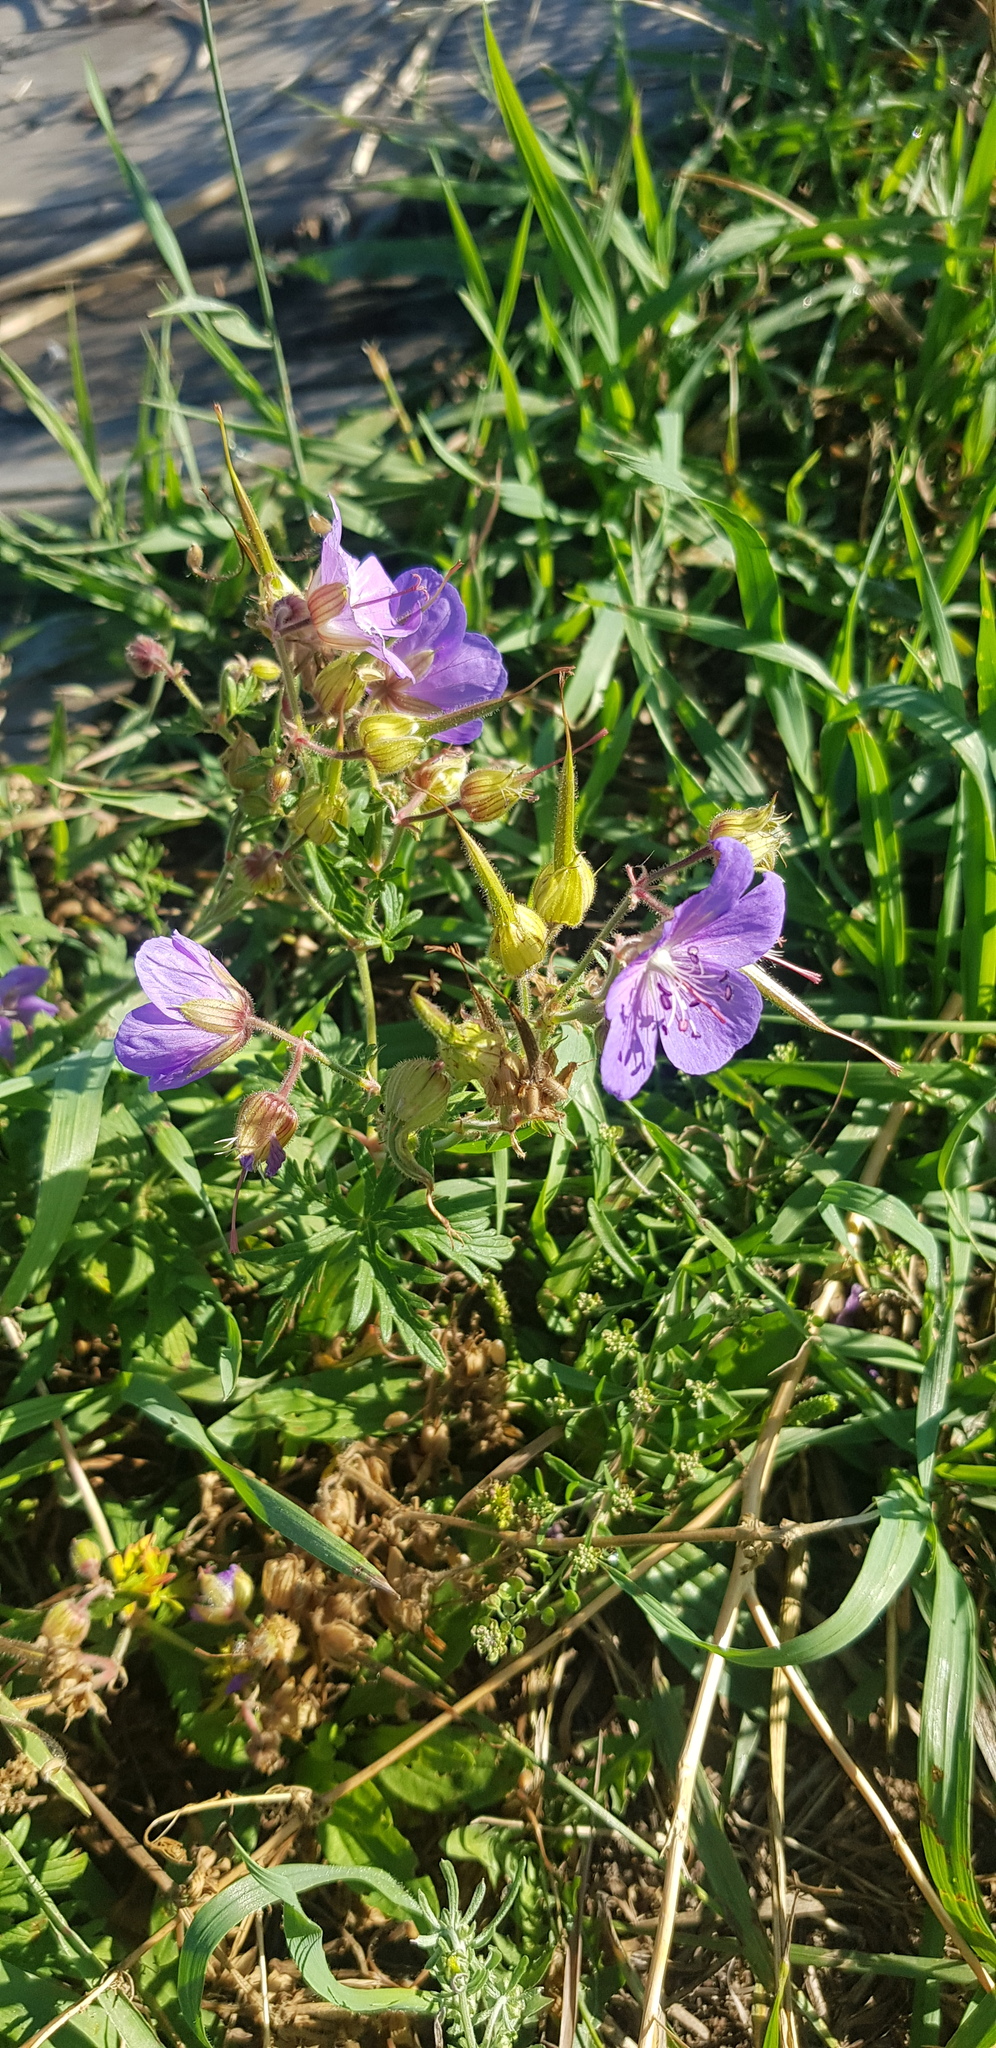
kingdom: Plantae
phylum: Tracheophyta
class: Magnoliopsida
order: Geraniales
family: Geraniaceae
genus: Geranium
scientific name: Geranium pratense
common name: Meadow crane's-bill
